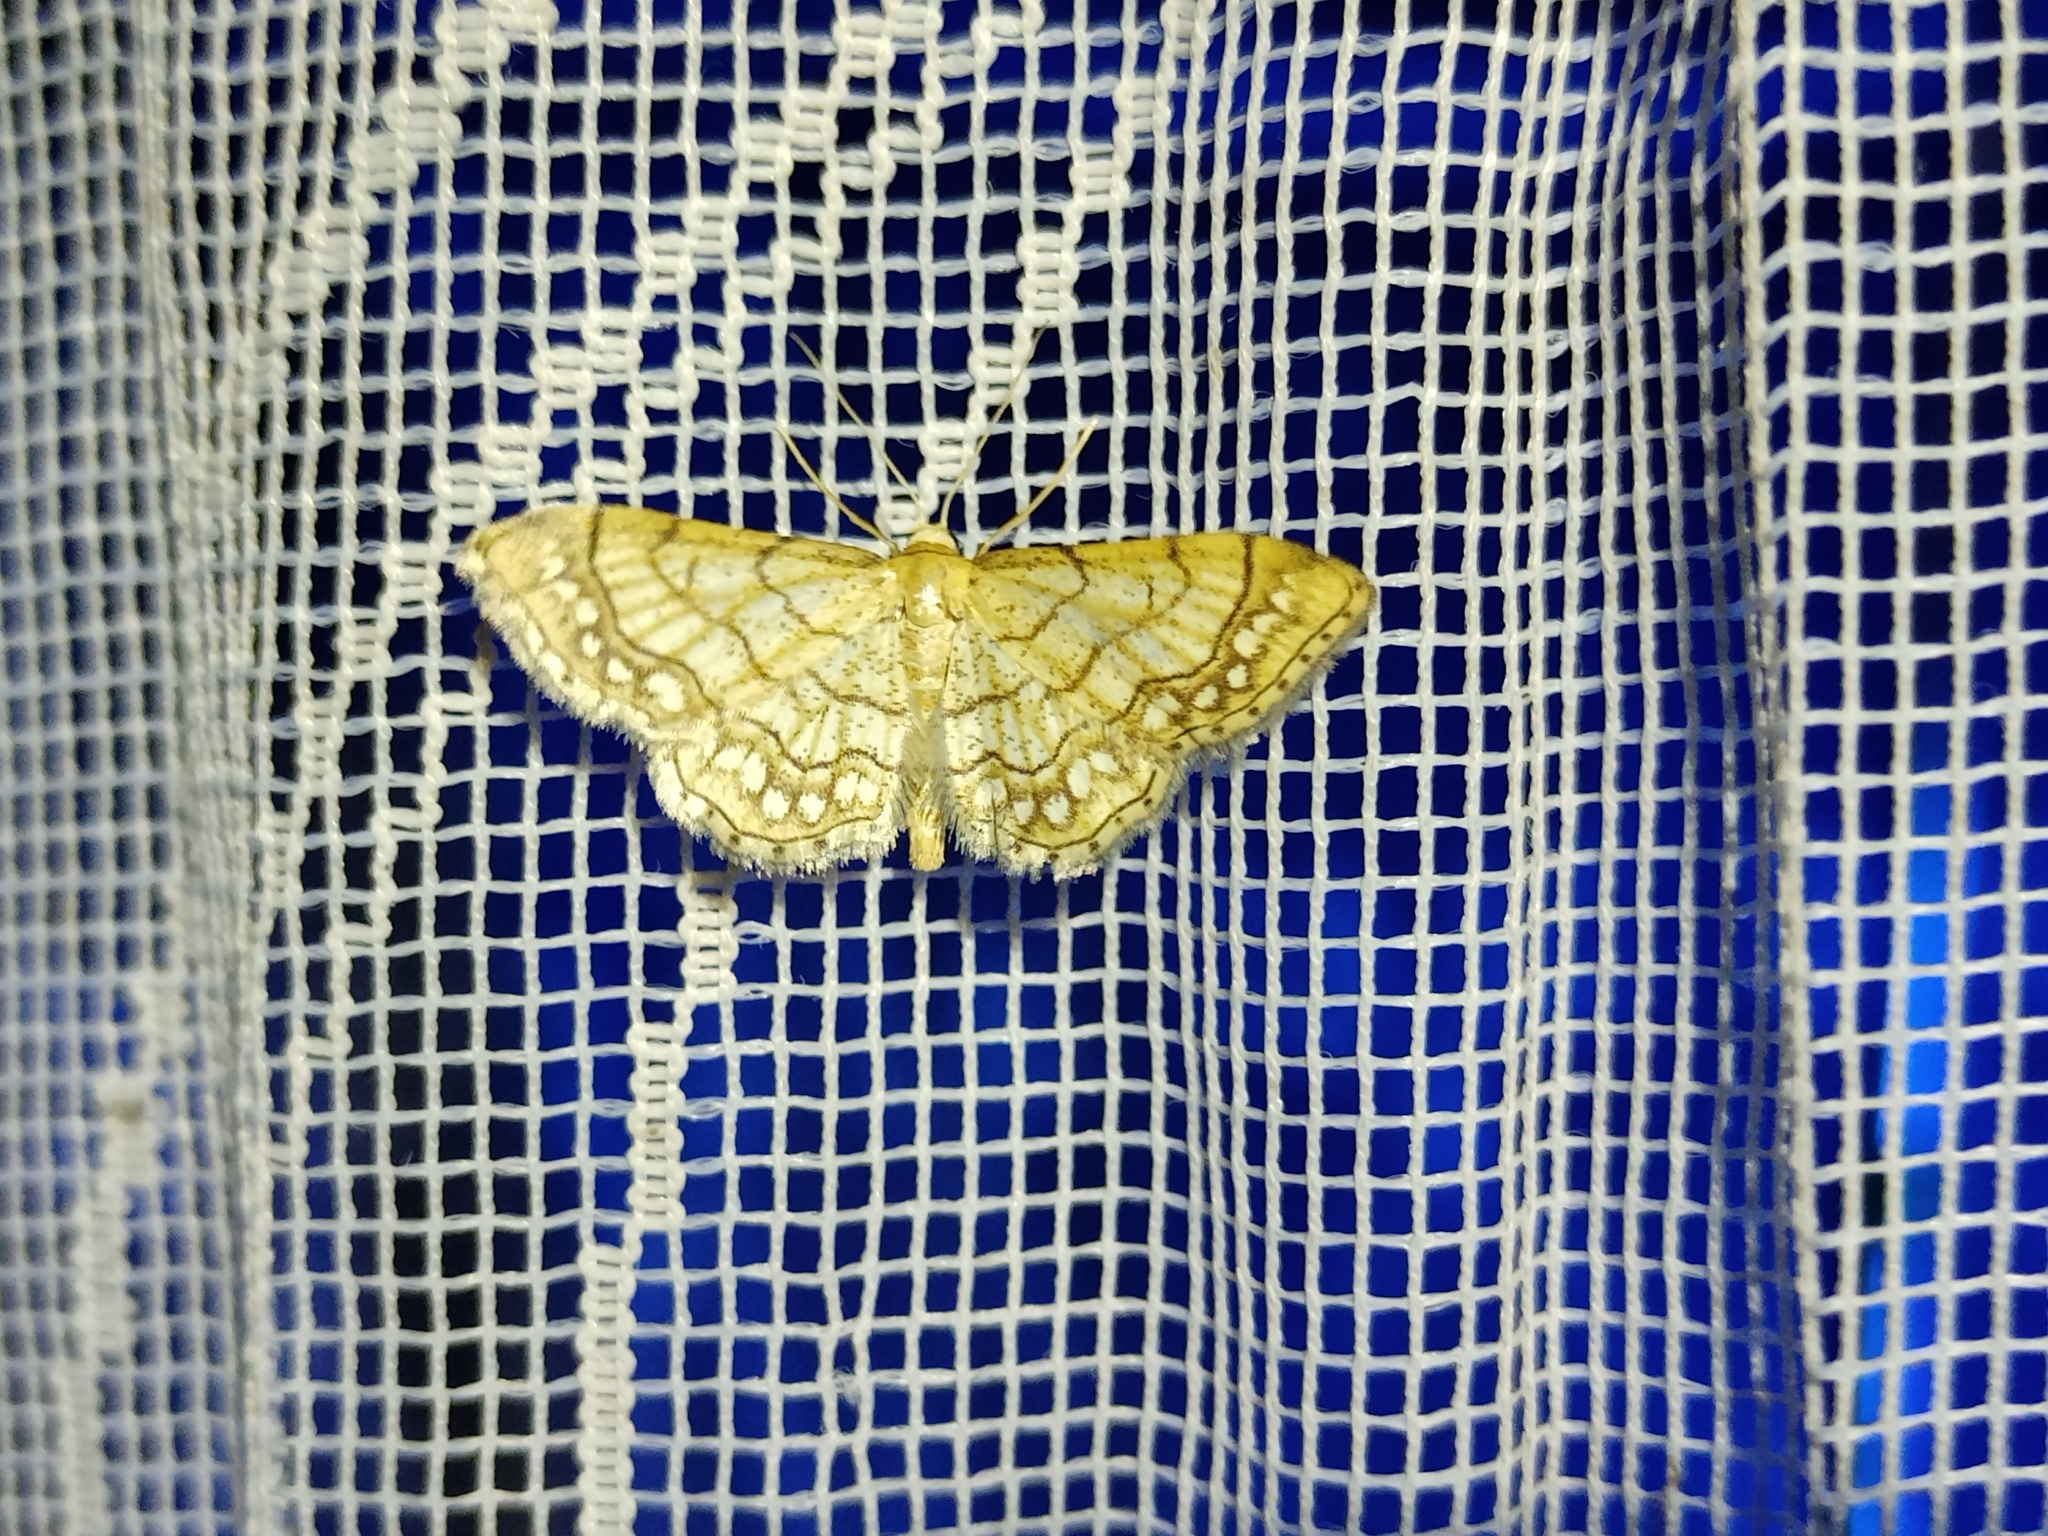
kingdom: Animalia
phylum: Arthropoda
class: Insecta
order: Lepidoptera
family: Geometridae
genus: Idaea
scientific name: Idaea moniliata
